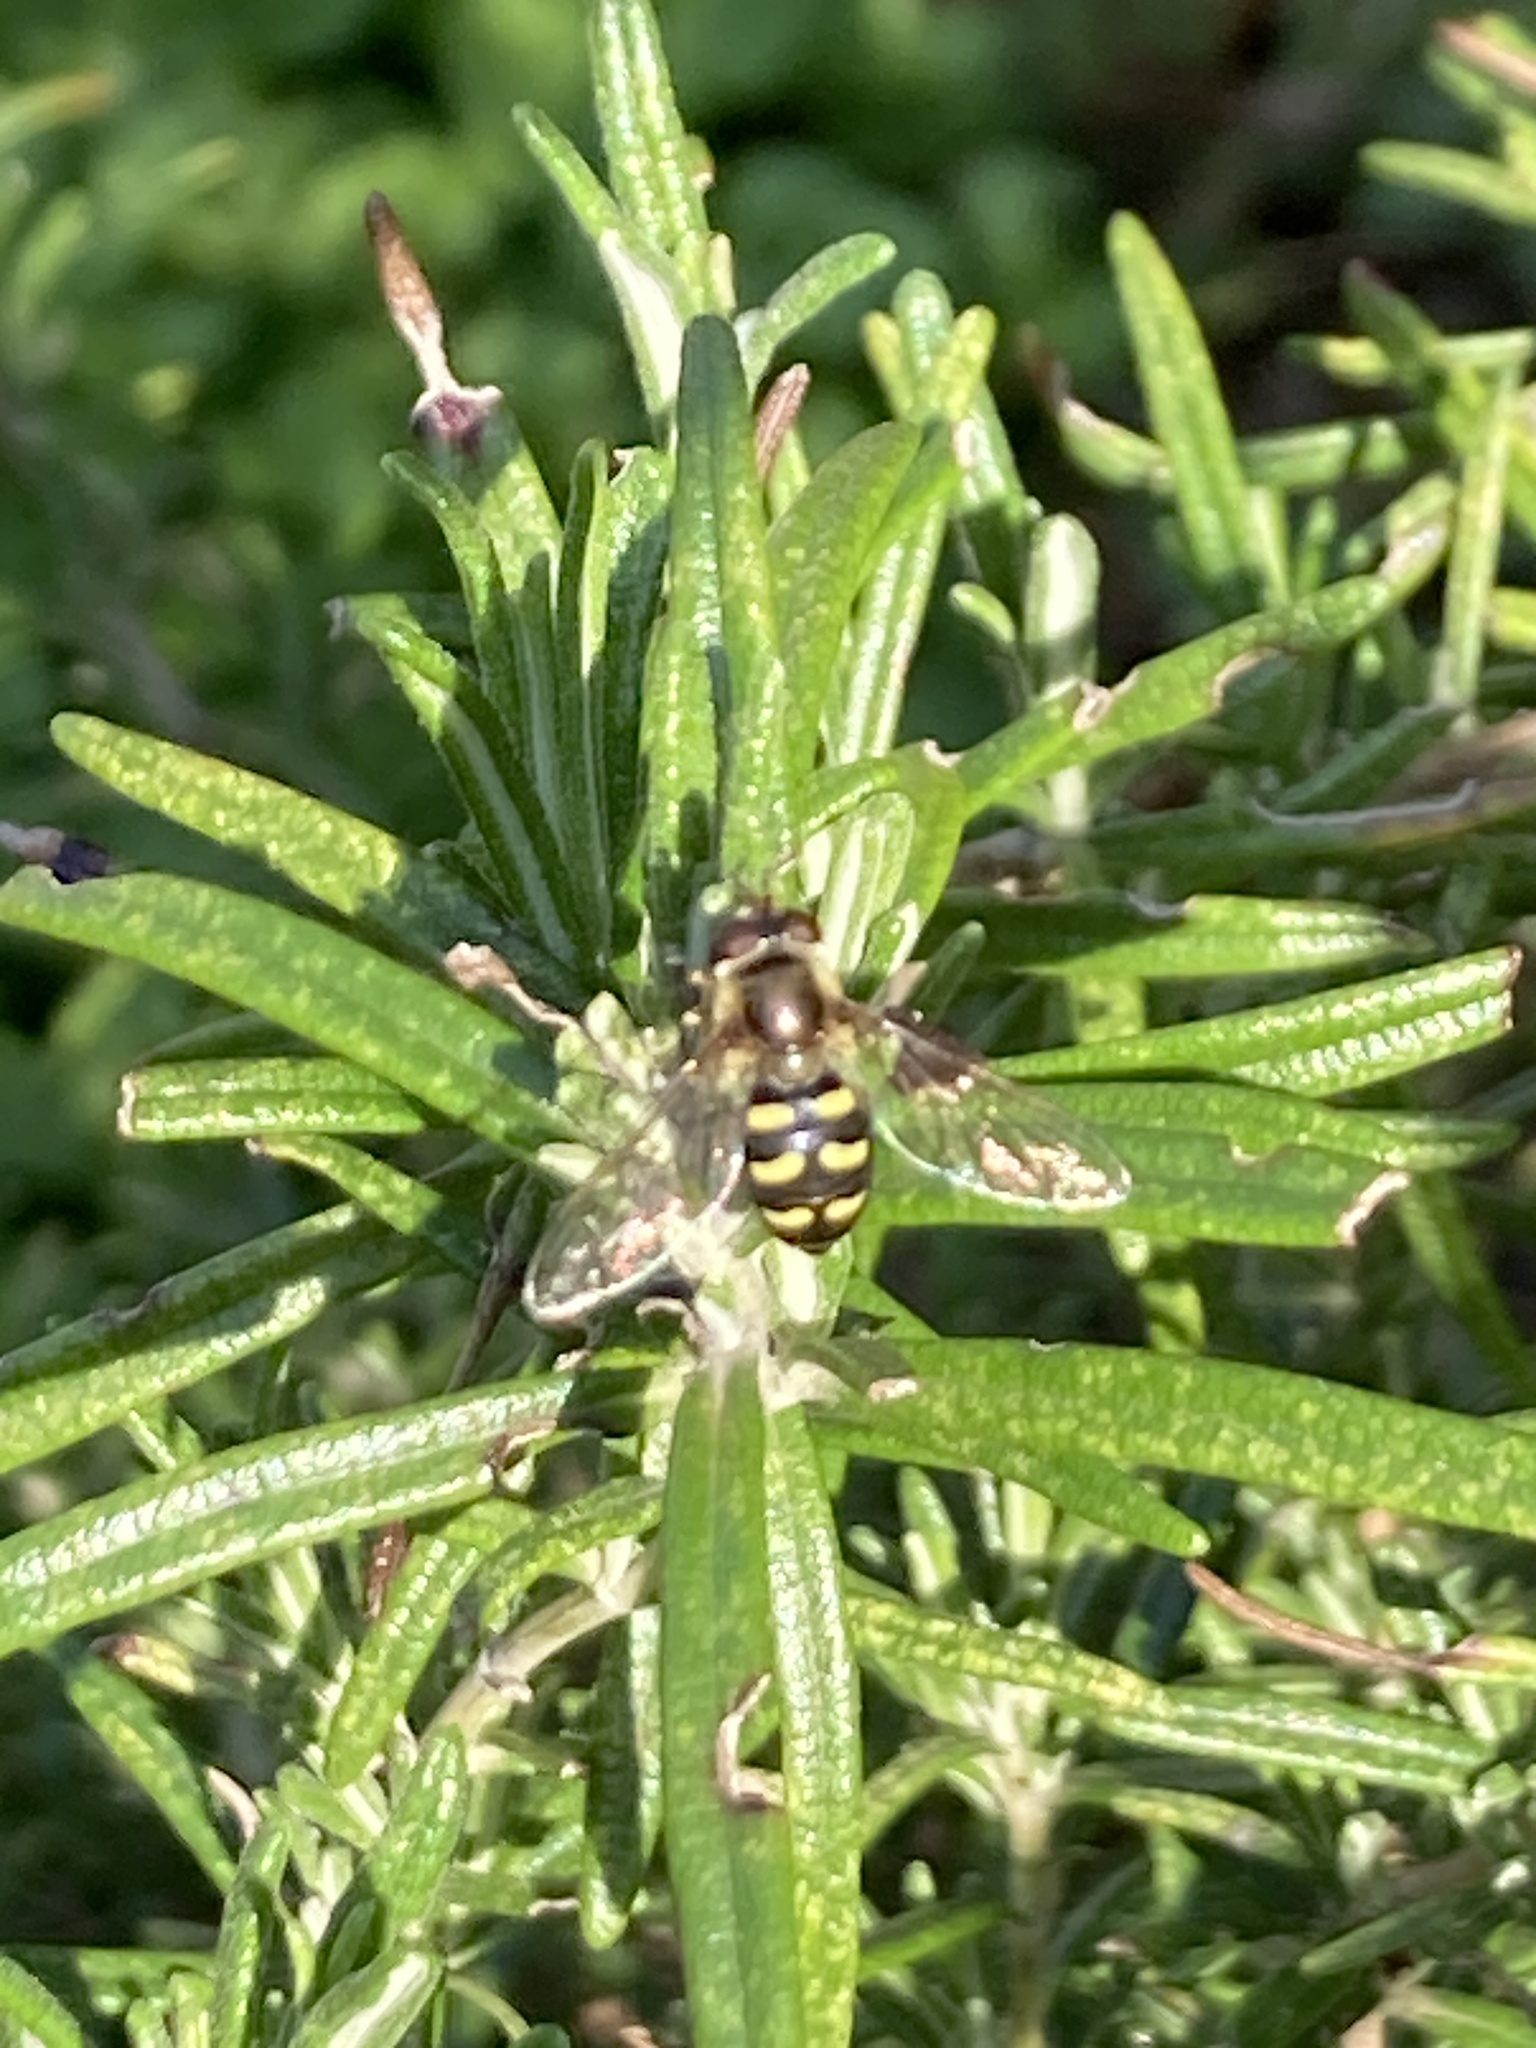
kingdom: Animalia
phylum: Arthropoda
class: Insecta
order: Diptera
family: Syrphidae
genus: Eupeodes
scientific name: Eupeodes
